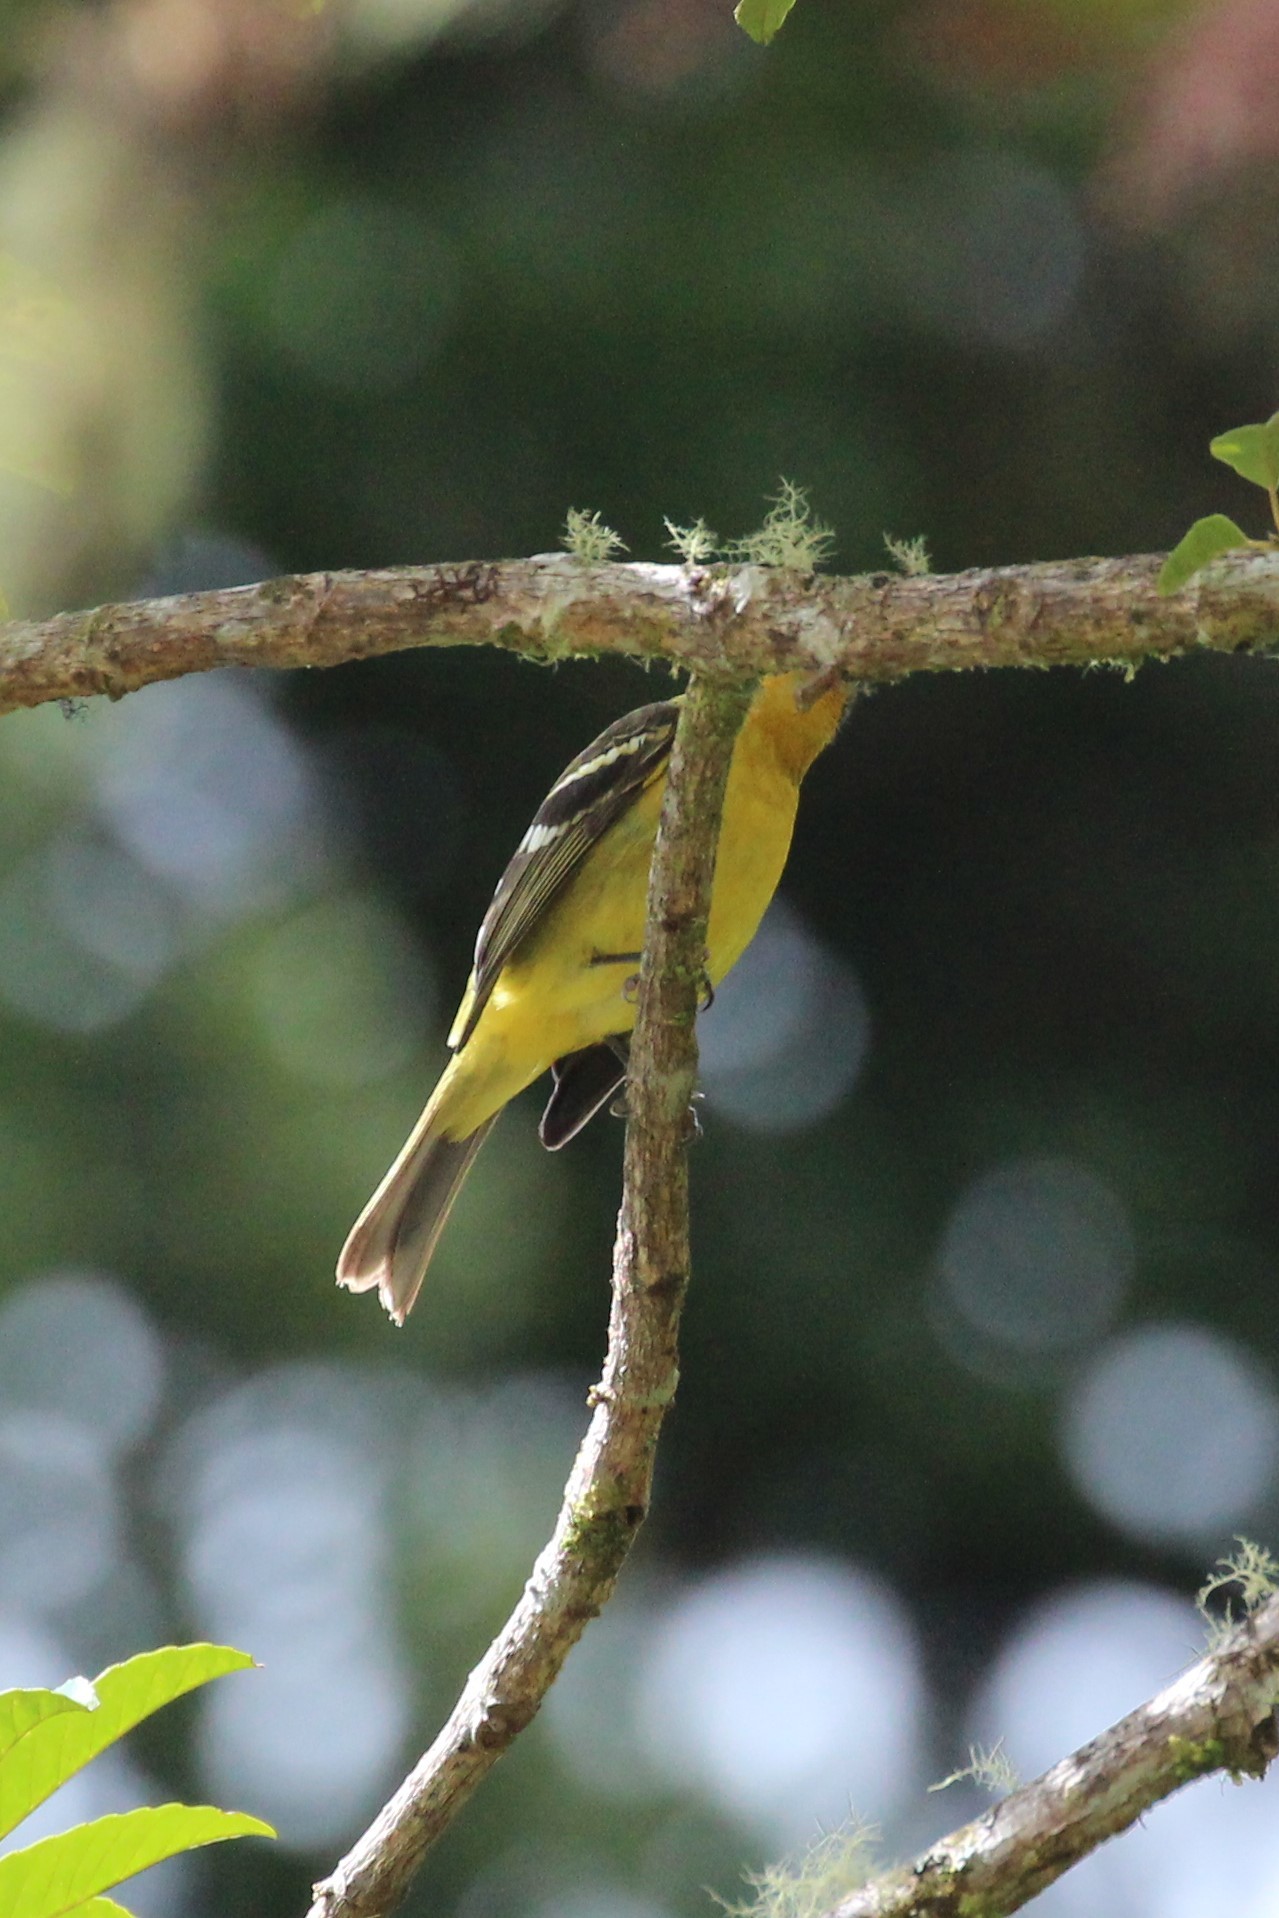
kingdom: Animalia
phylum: Chordata
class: Aves
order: Passeriformes
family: Cardinalidae
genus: Piranga
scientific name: Piranga bidentata
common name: Flame-colored tanager
